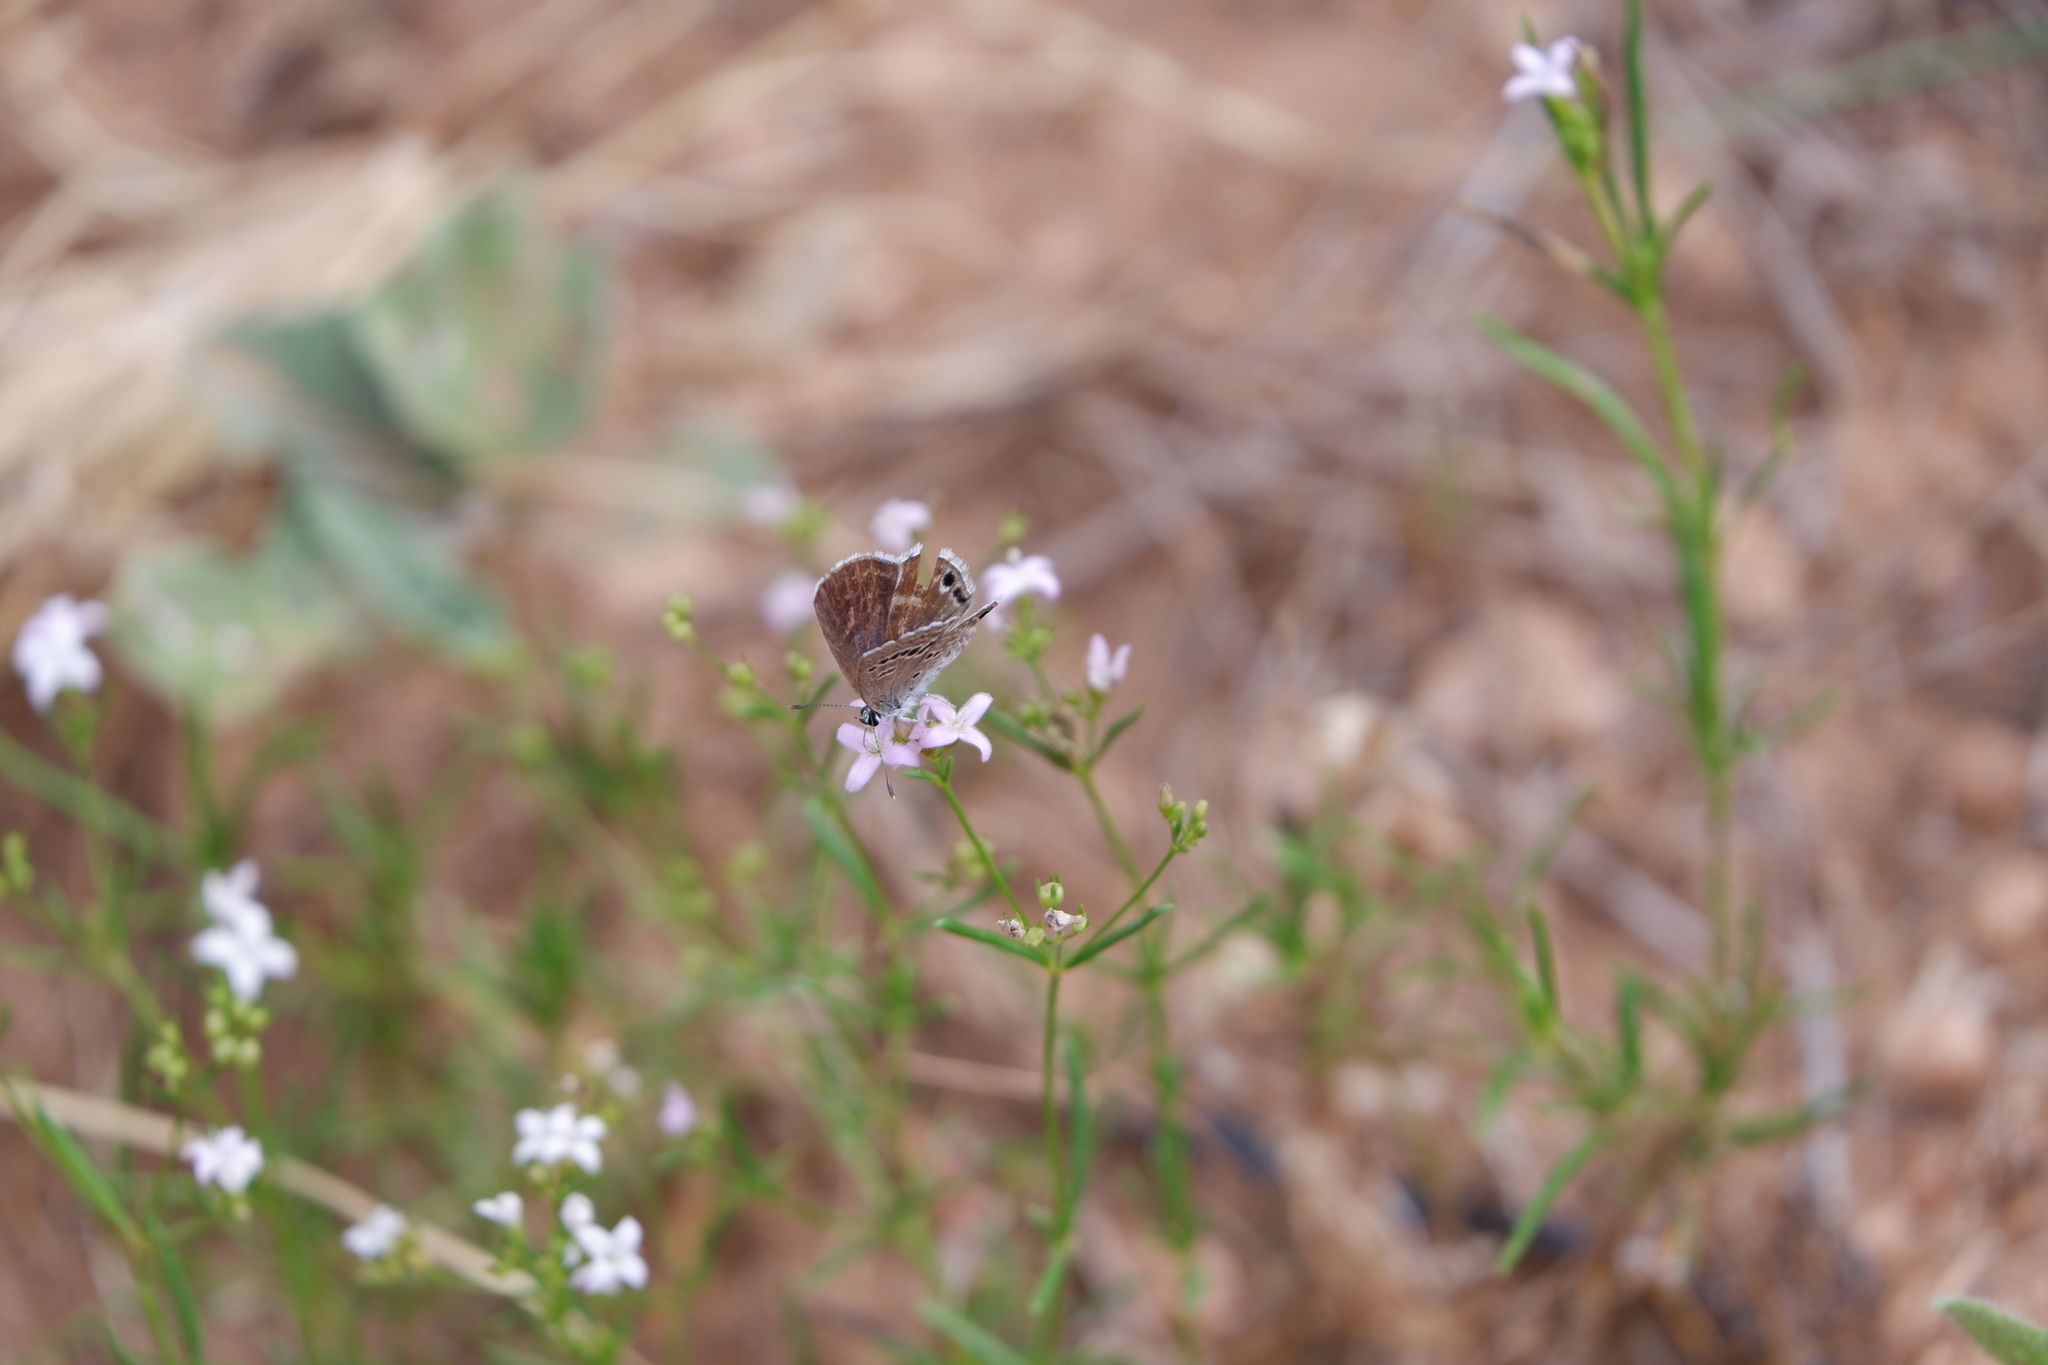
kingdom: Animalia
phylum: Arthropoda
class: Insecta
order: Lepidoptera
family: Lycaenidae
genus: Echinargus
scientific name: Echinargus isola
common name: Reakirt's blue
